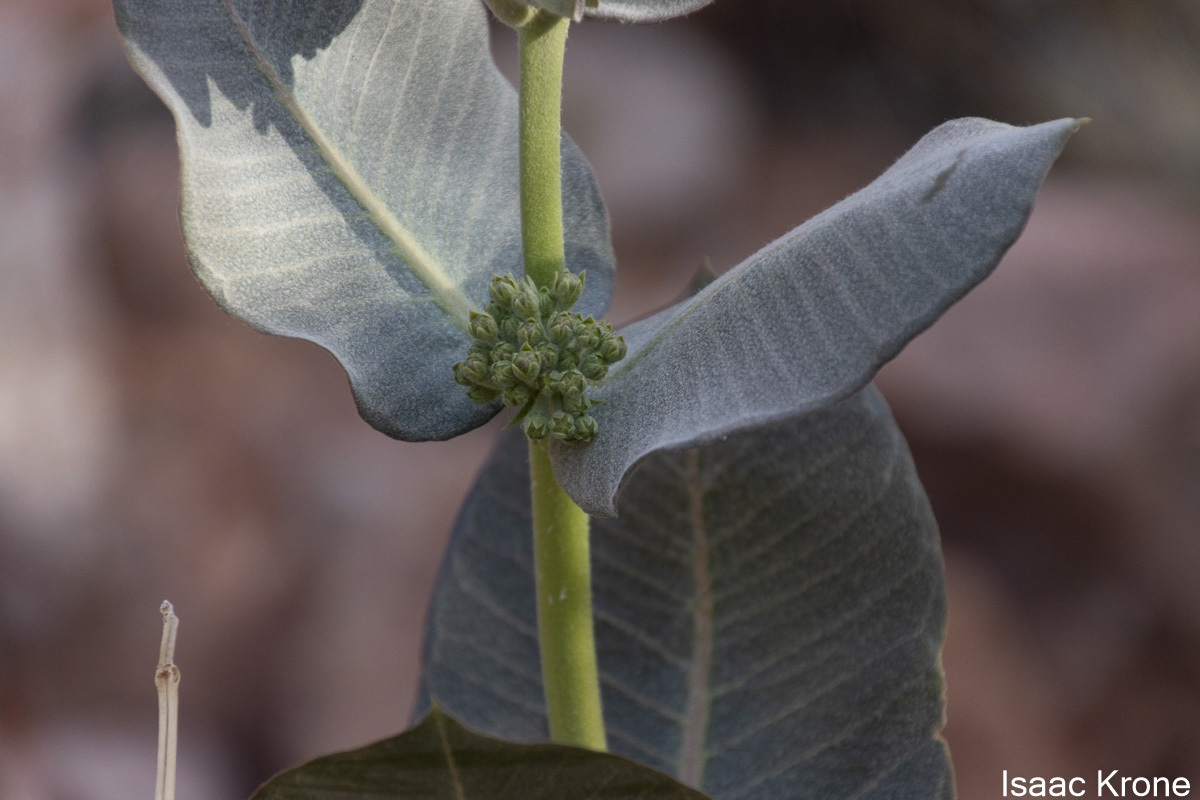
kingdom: Plantae
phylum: Tracheophyta
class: Magnoliopsida
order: Gentianales
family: Apocynaceae
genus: Asclepias
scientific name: Asclepias latifolia
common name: Broadleaf milkweed
